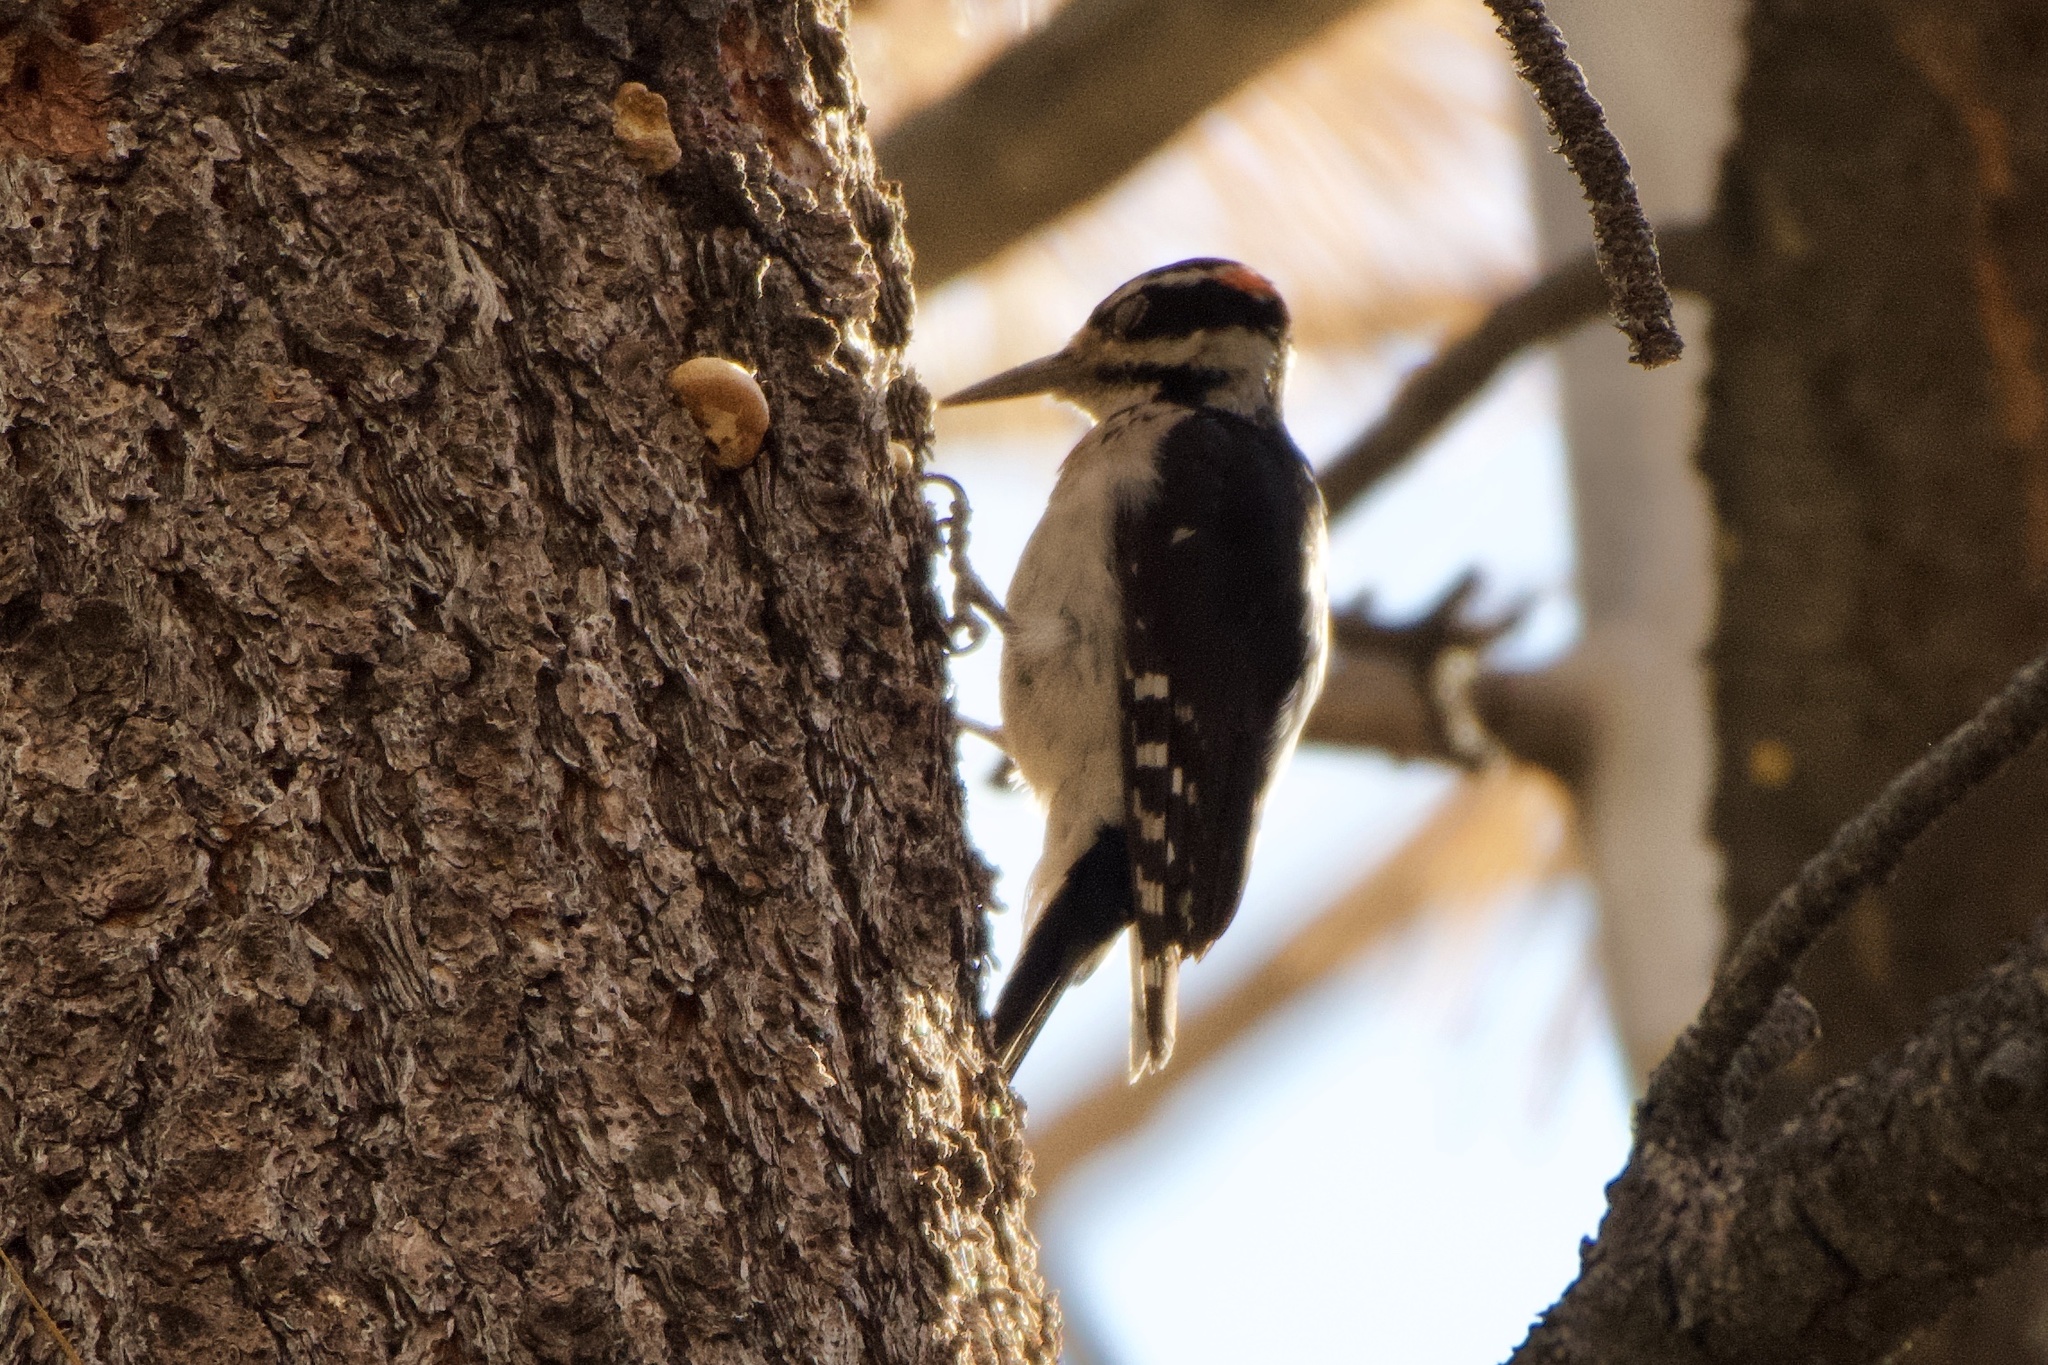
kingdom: Animalia
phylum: Chordata
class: Aves
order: Piciformes
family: Picidae
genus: Leuconotopicus
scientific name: Leuconotopicus villosus
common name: Hairy woodpecker
